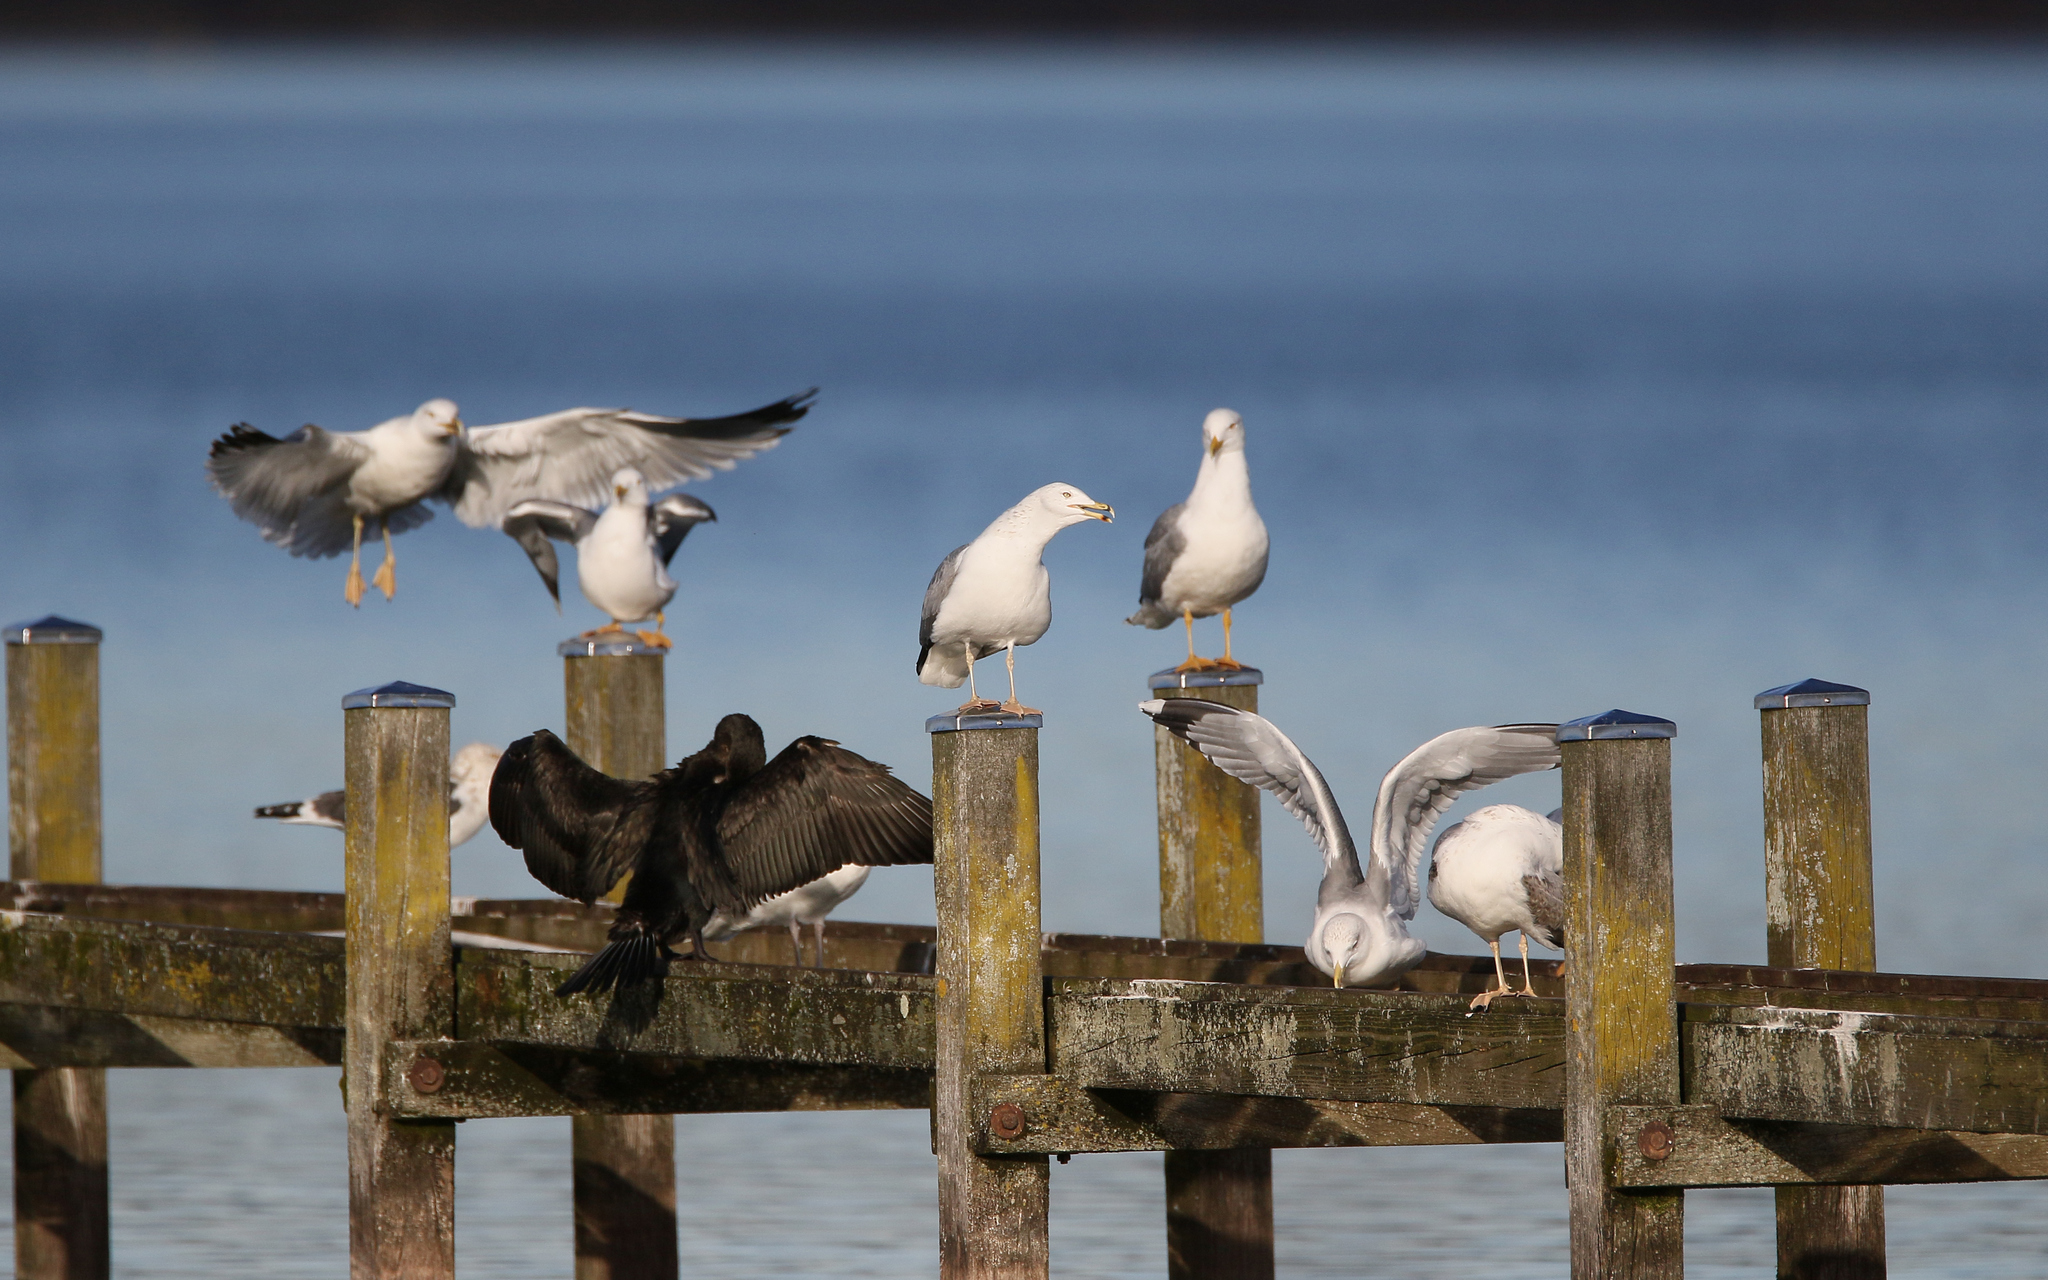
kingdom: Animalia
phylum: Chordata
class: Aves
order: Charadriiformes
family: Laridae
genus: Larus
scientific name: Larus cachinnans
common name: Caspian gull
